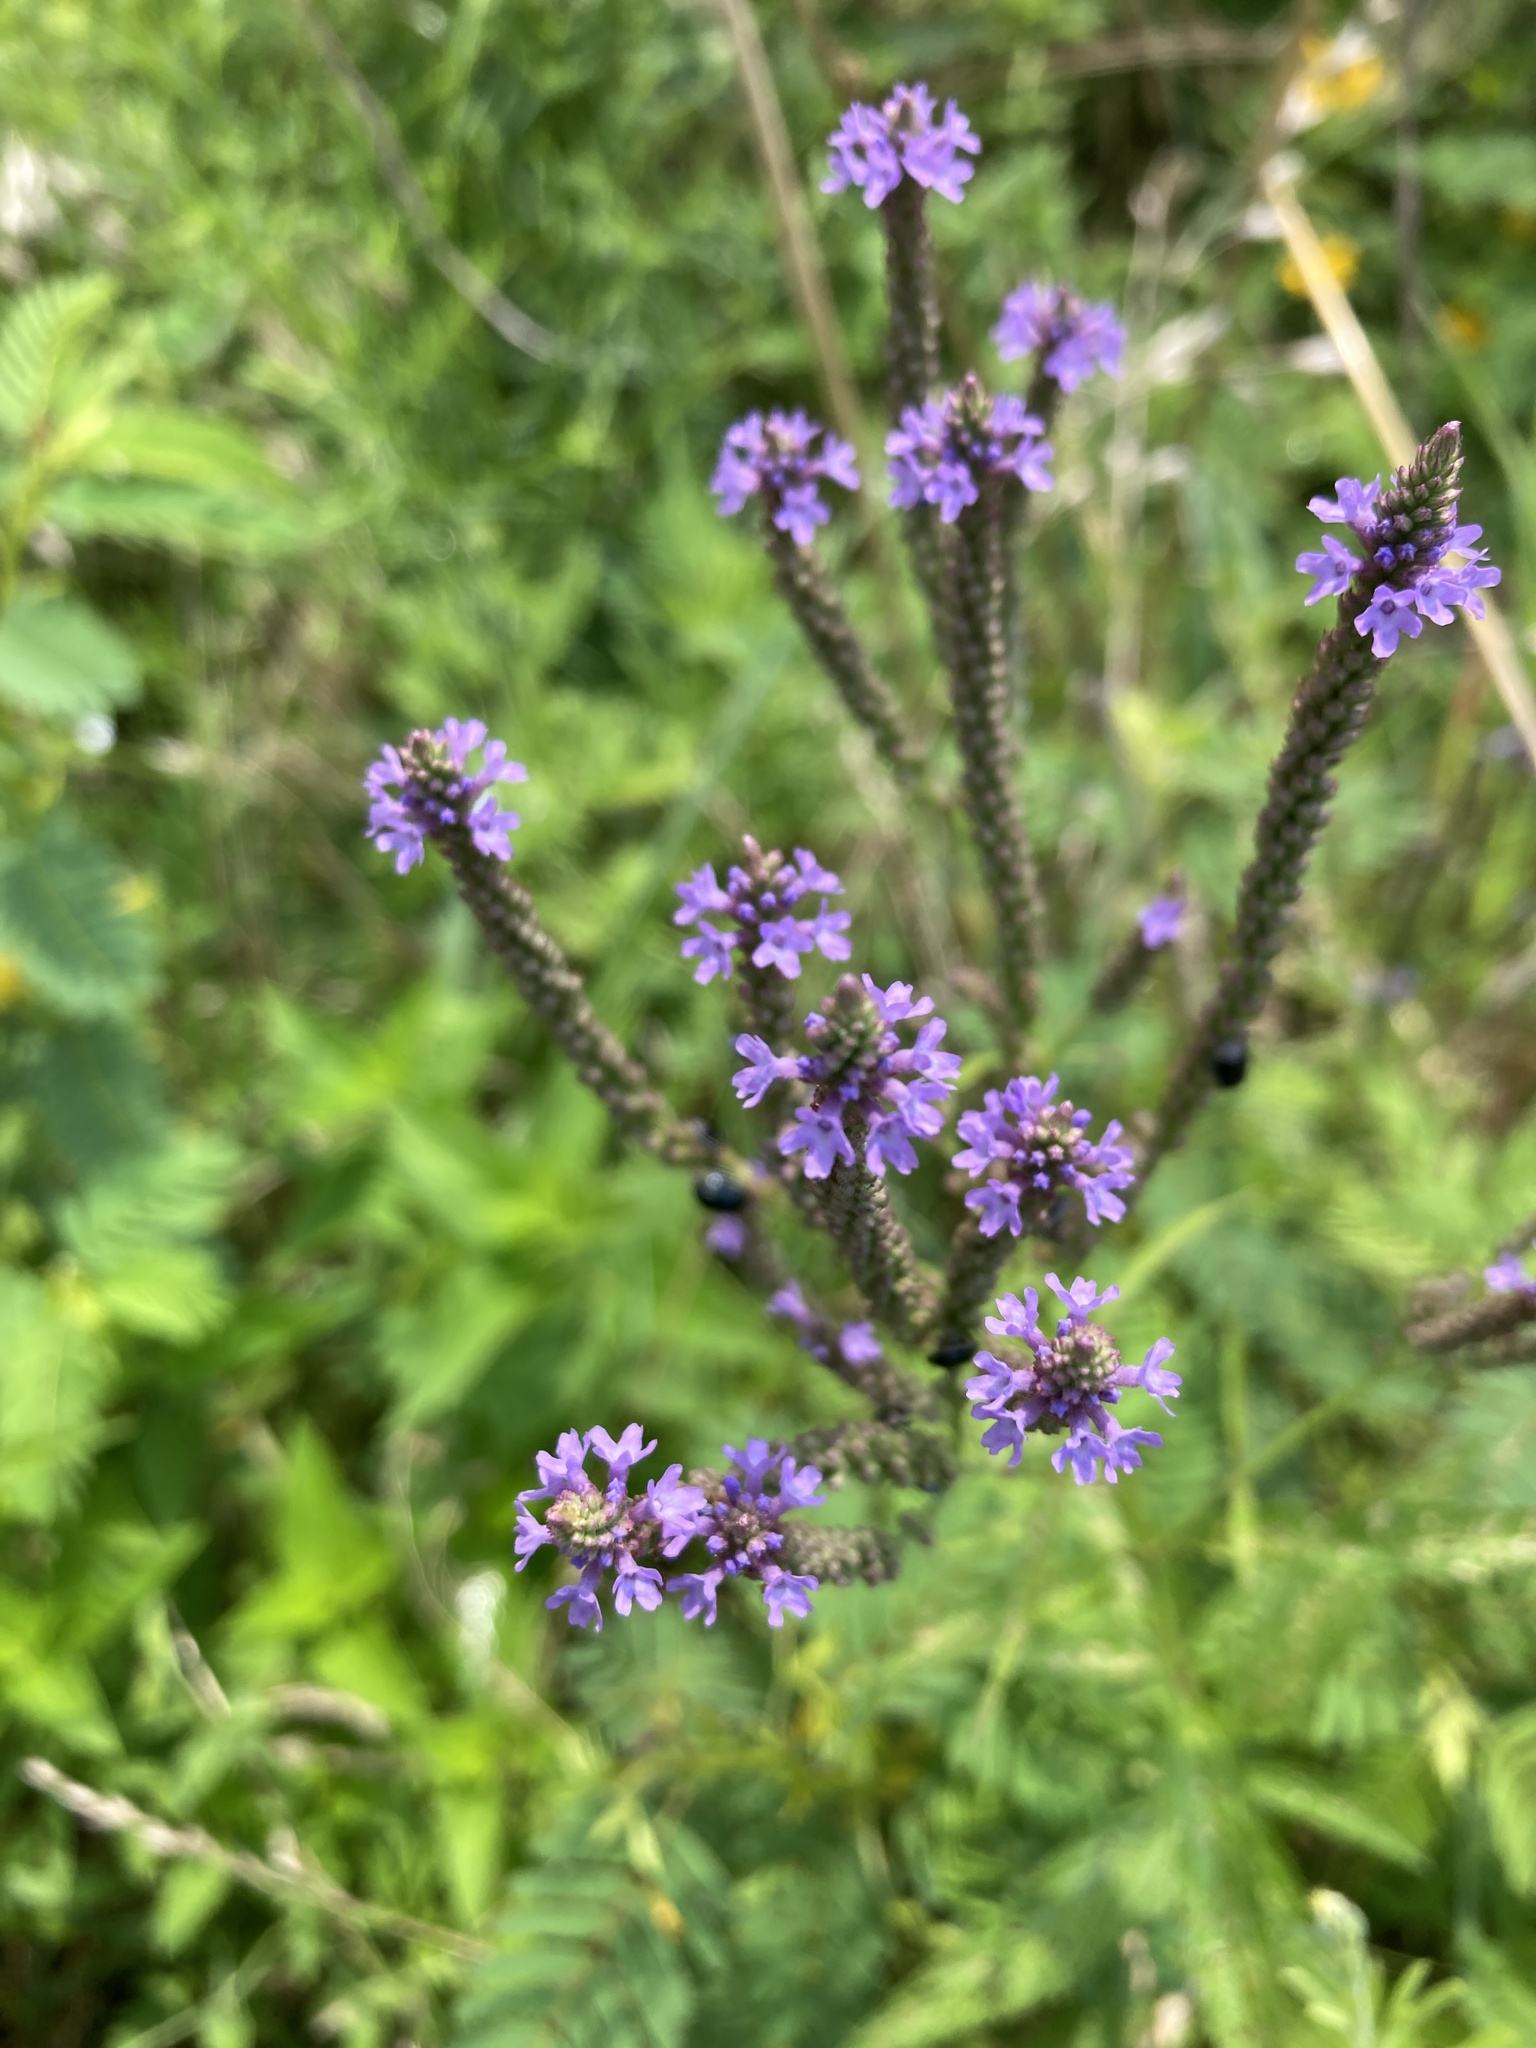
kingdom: Plantae
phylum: Tracheophyta
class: Magnoliopsida
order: Lamiales
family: Verbenaceae
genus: Verbena
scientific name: Verbena hastata
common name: American blue vervain
